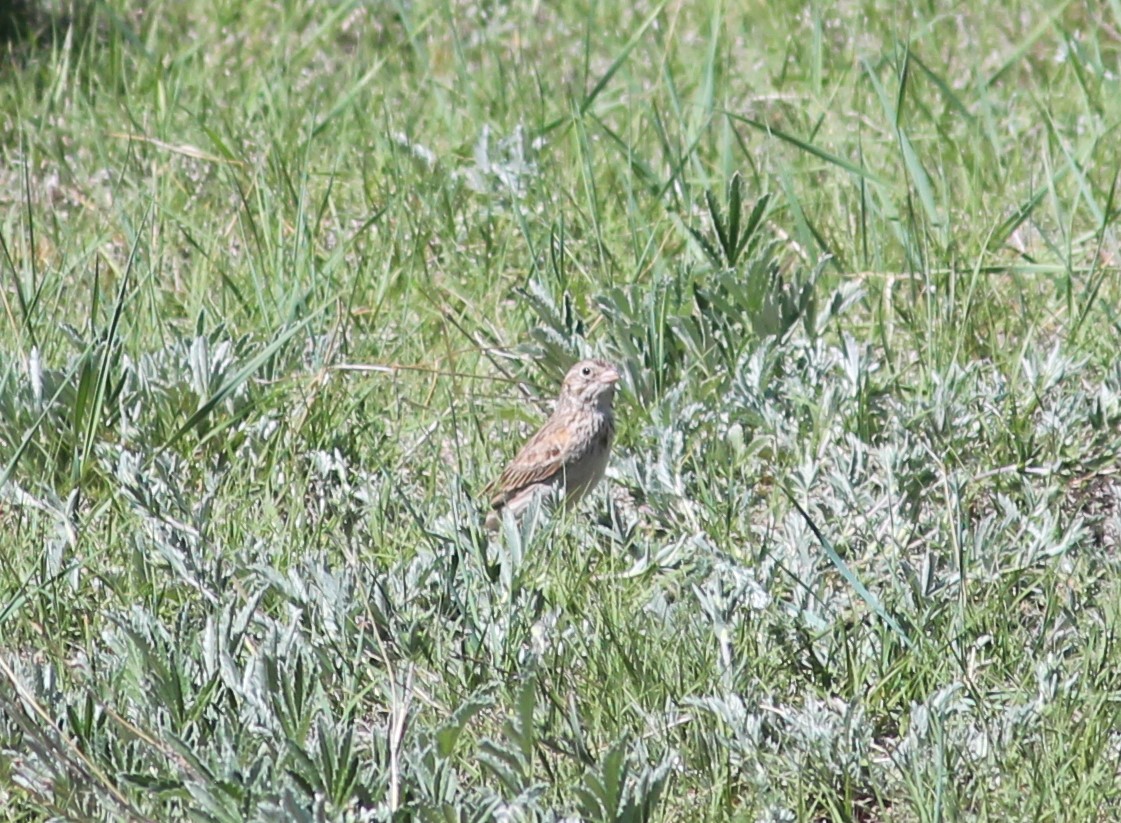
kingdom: Animalia
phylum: Chordata
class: Aves
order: Passeriformes
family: Passerellidae
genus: Pooecetes
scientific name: Pooecetes gramineus
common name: Vesper sparrow
